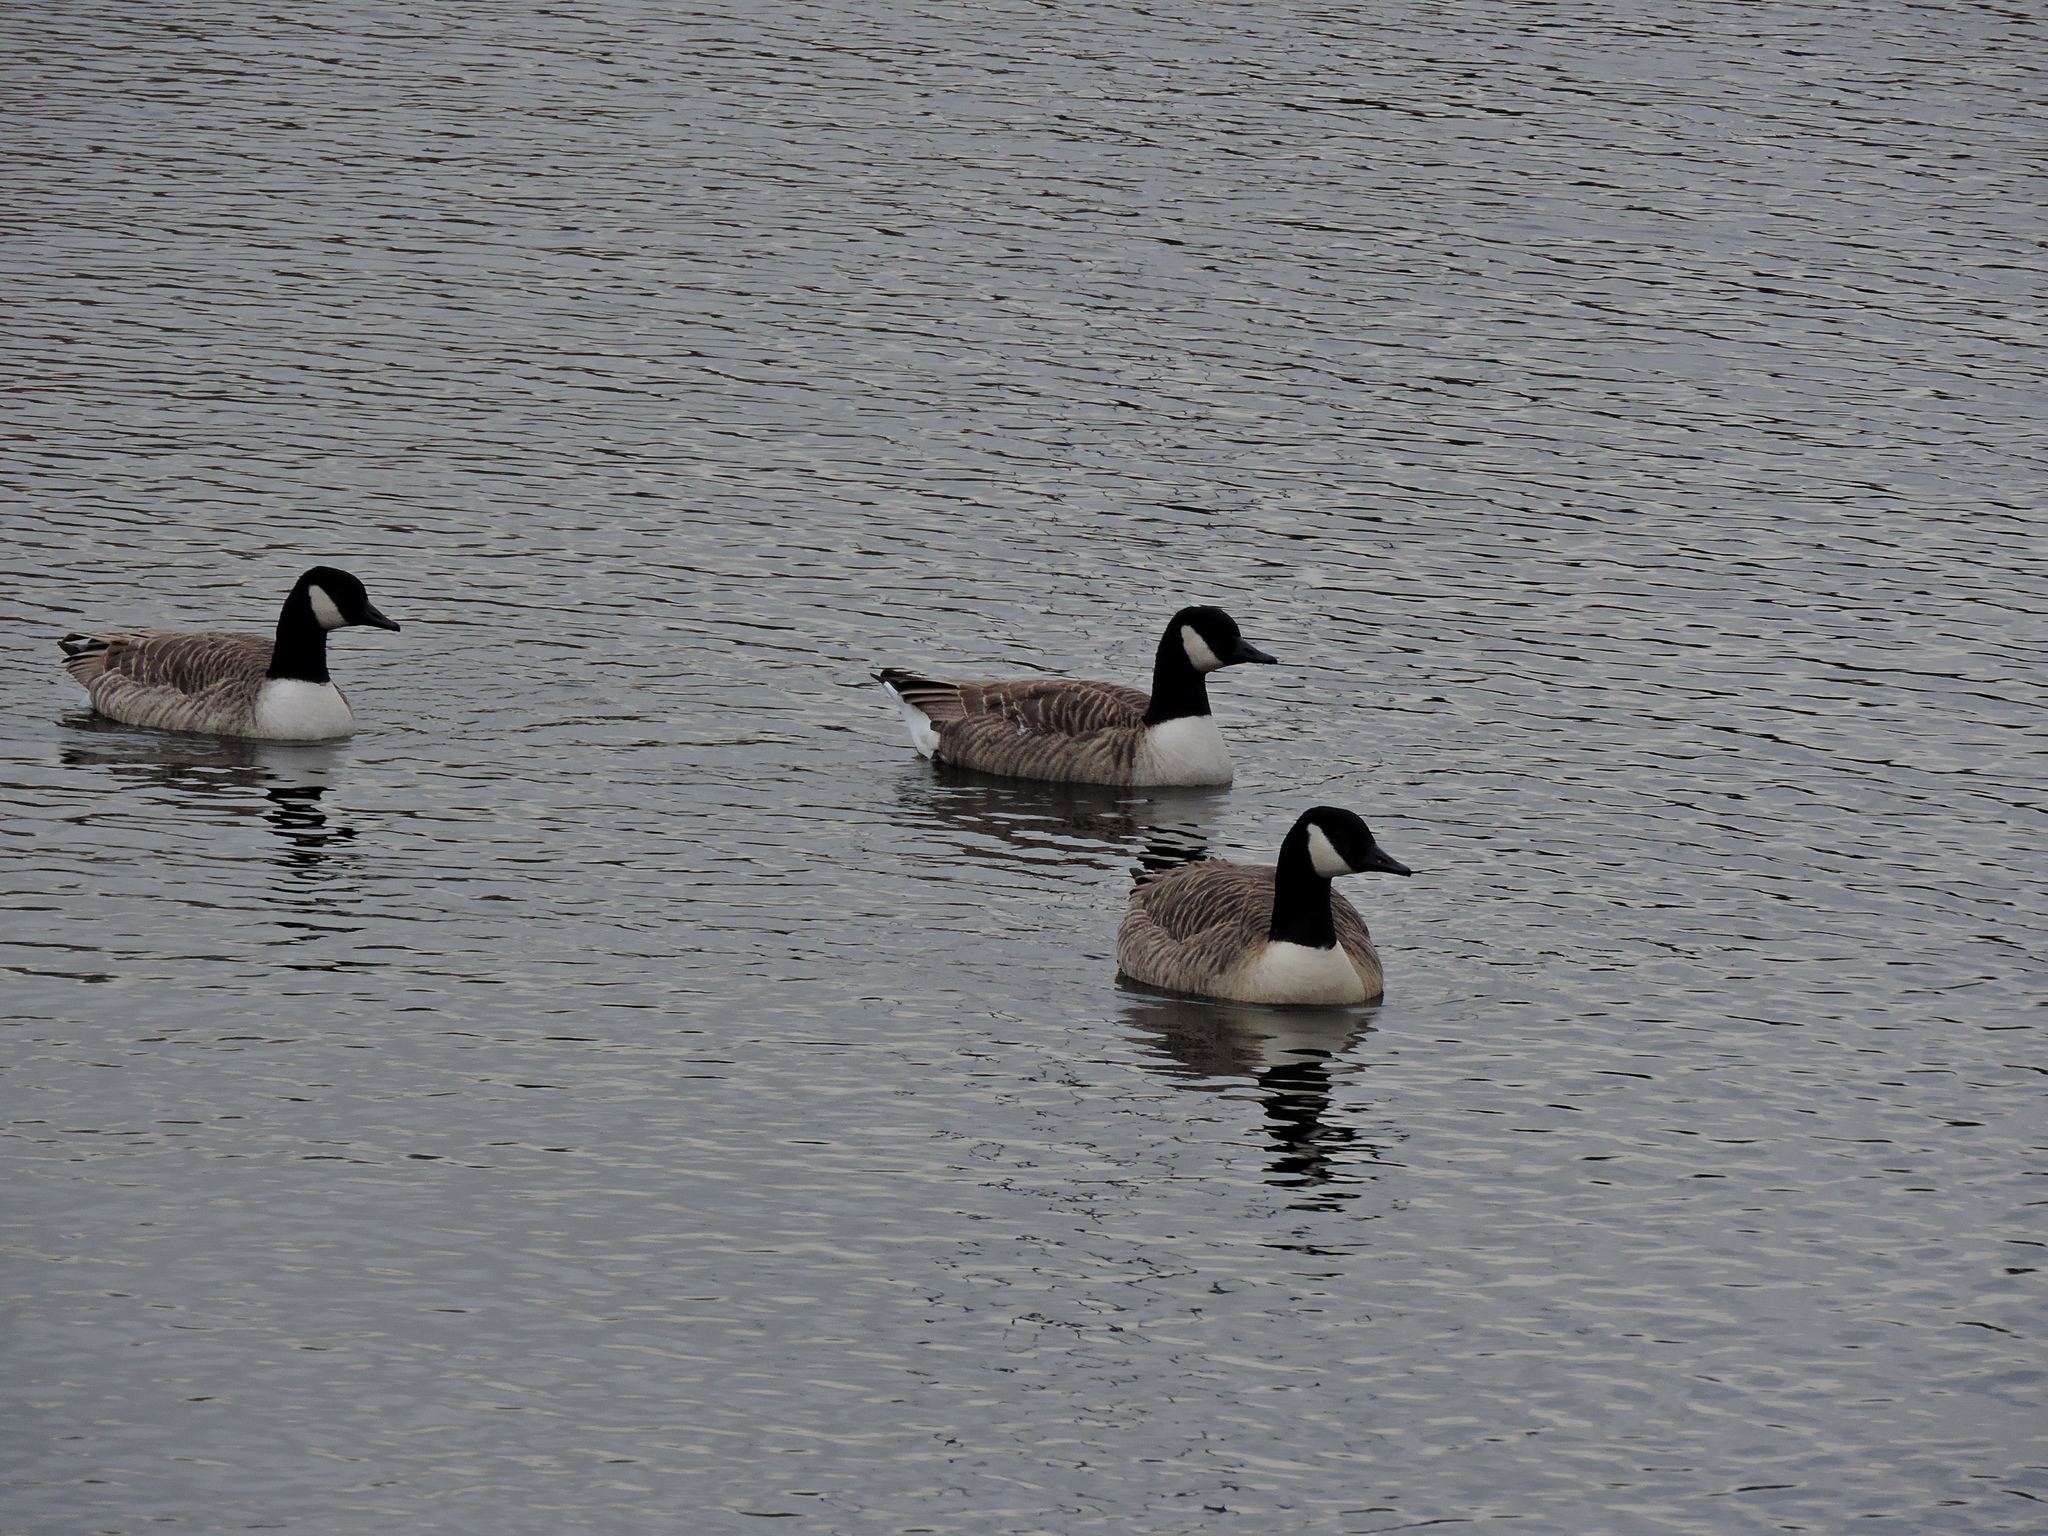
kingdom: Animalia
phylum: Chordata
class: Aves
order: Anseriformes
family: Anatidae
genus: Branta
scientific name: Branta canadensis
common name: Canada goose
